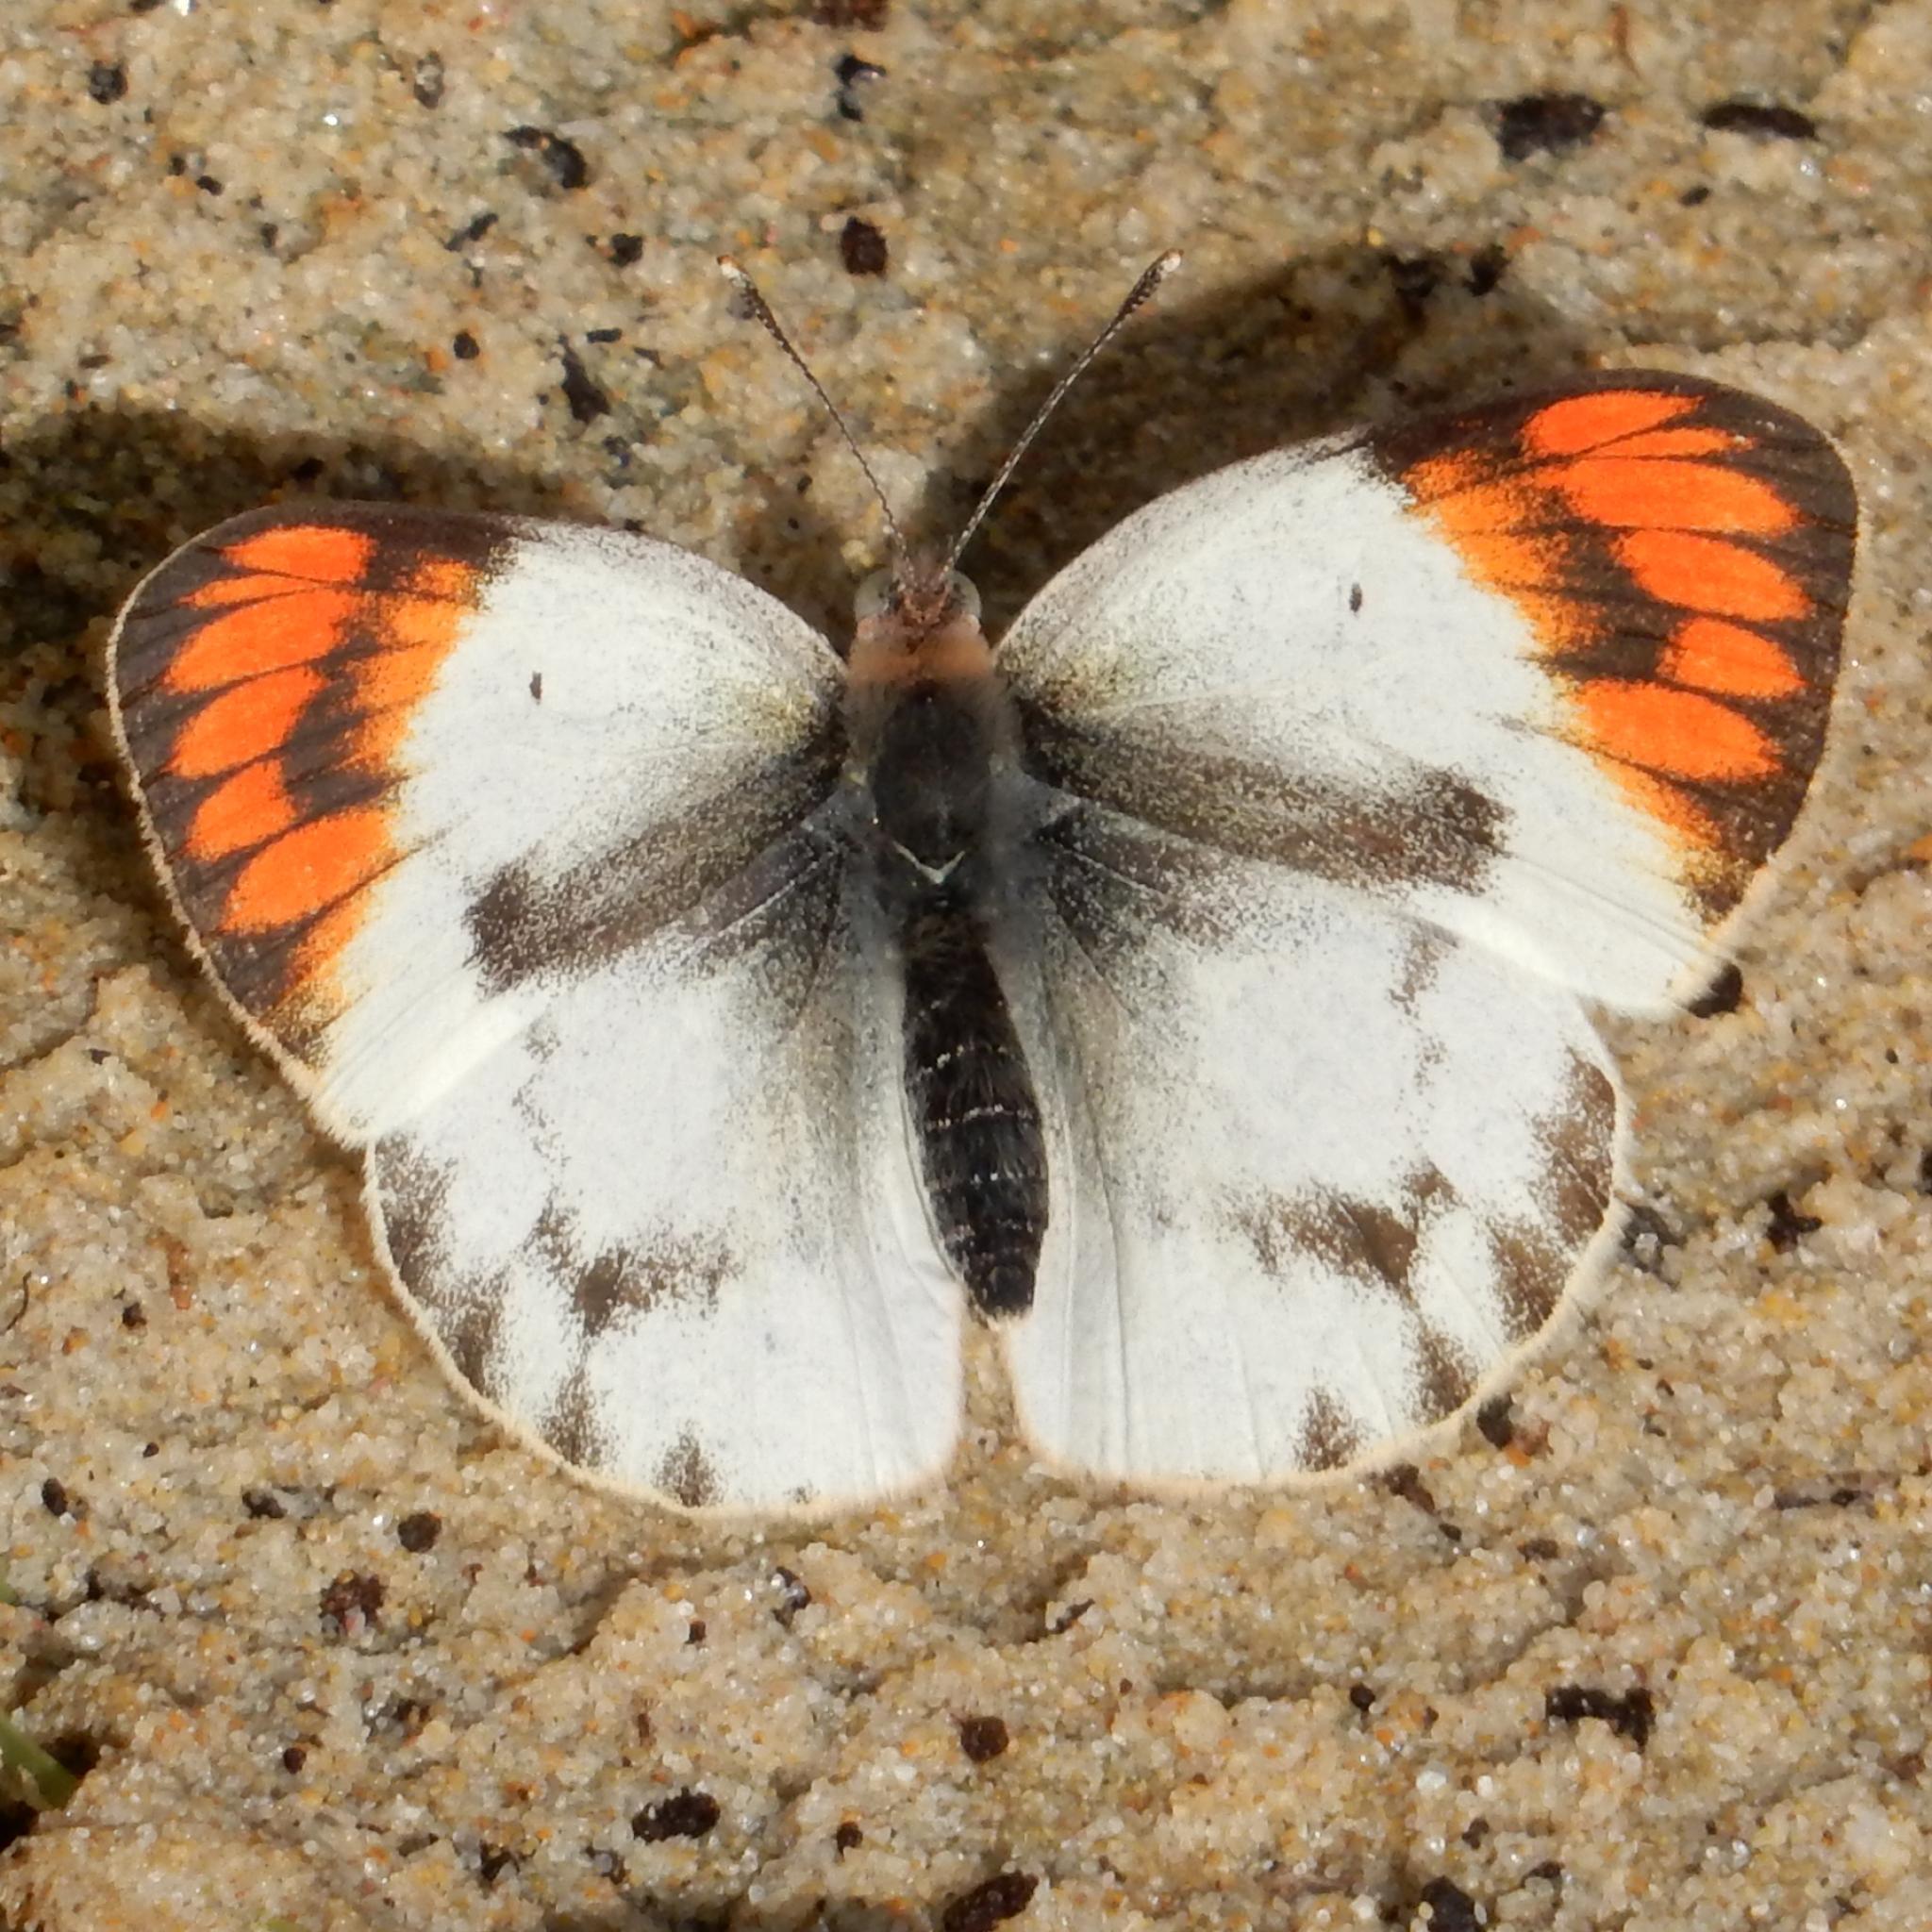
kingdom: Animalia
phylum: Arthropoda
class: Insecta
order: Lepidoptera
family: Pieridae
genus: Colotis
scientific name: Colotis antevippe
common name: Large orange tip
